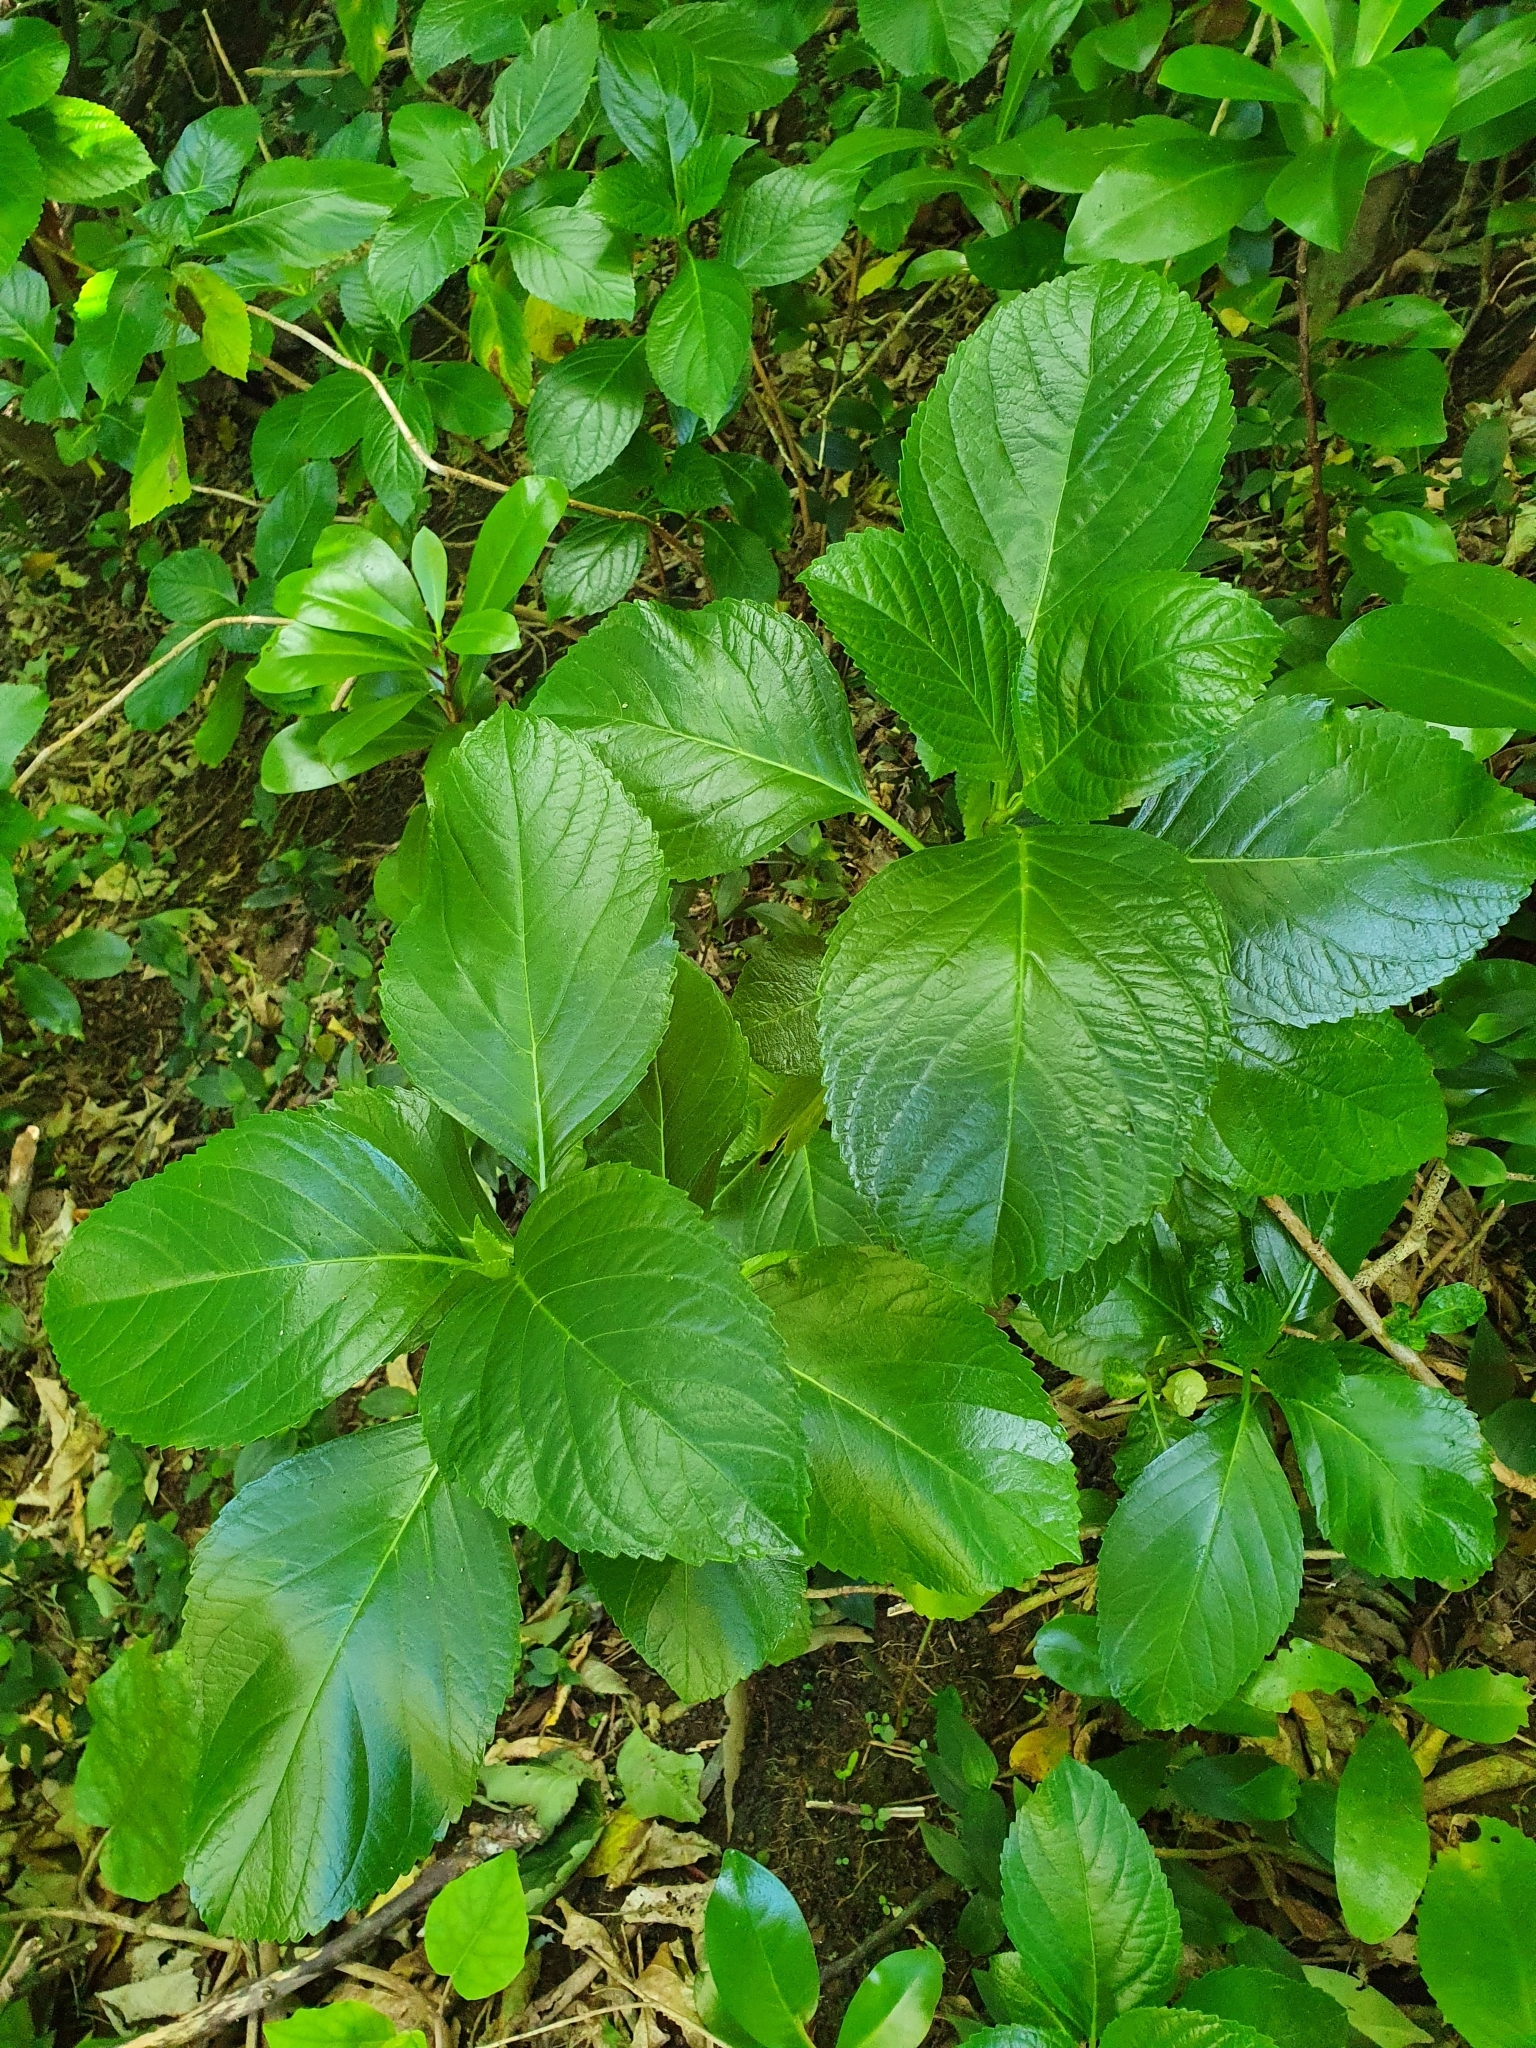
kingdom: Plantae
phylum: Tracheophyta
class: Magnoliopsida
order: Cornales
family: Hydrangeaceae
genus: Hydrangea
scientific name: Hydrangea macrophylla
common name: Hydrangea
